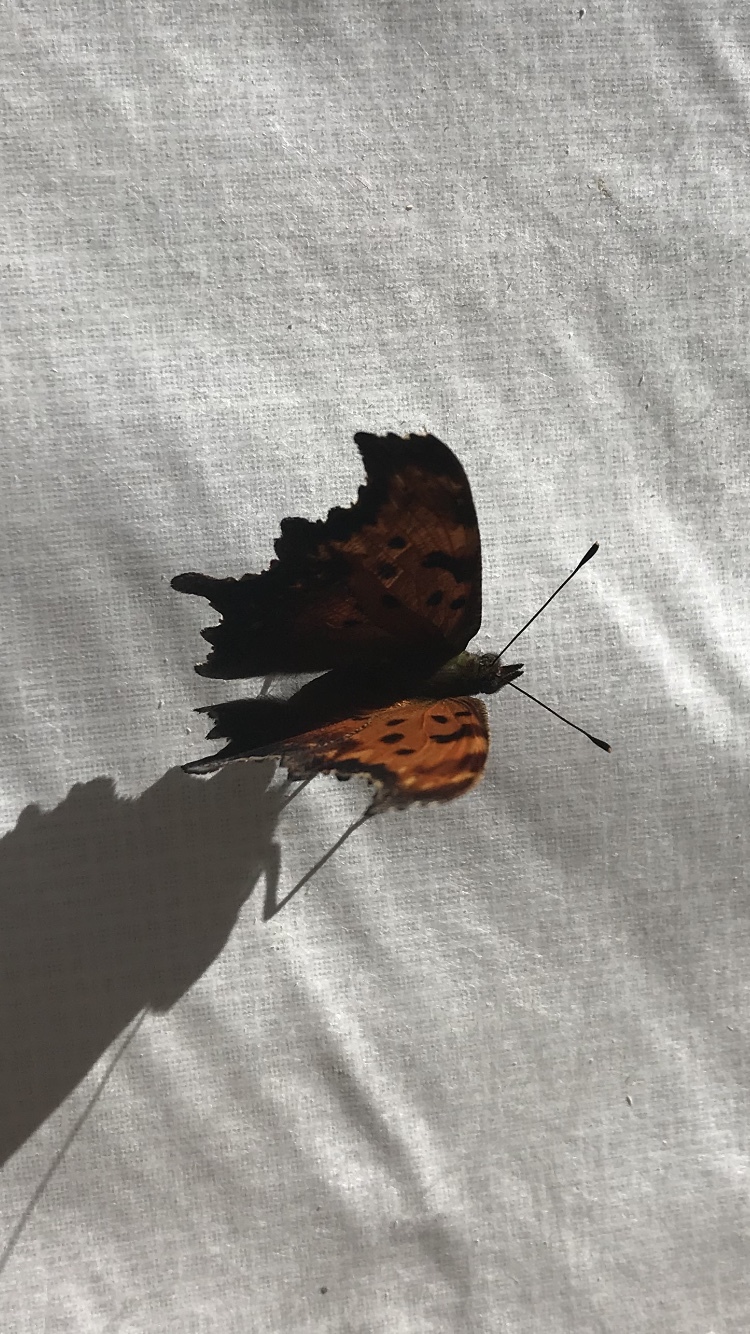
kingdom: Animalia
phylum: Arthropoda
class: Insecta
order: Lepidoptera
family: Nymphalidae
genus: Polygonia
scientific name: Polygonia progne
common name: Gray comma
